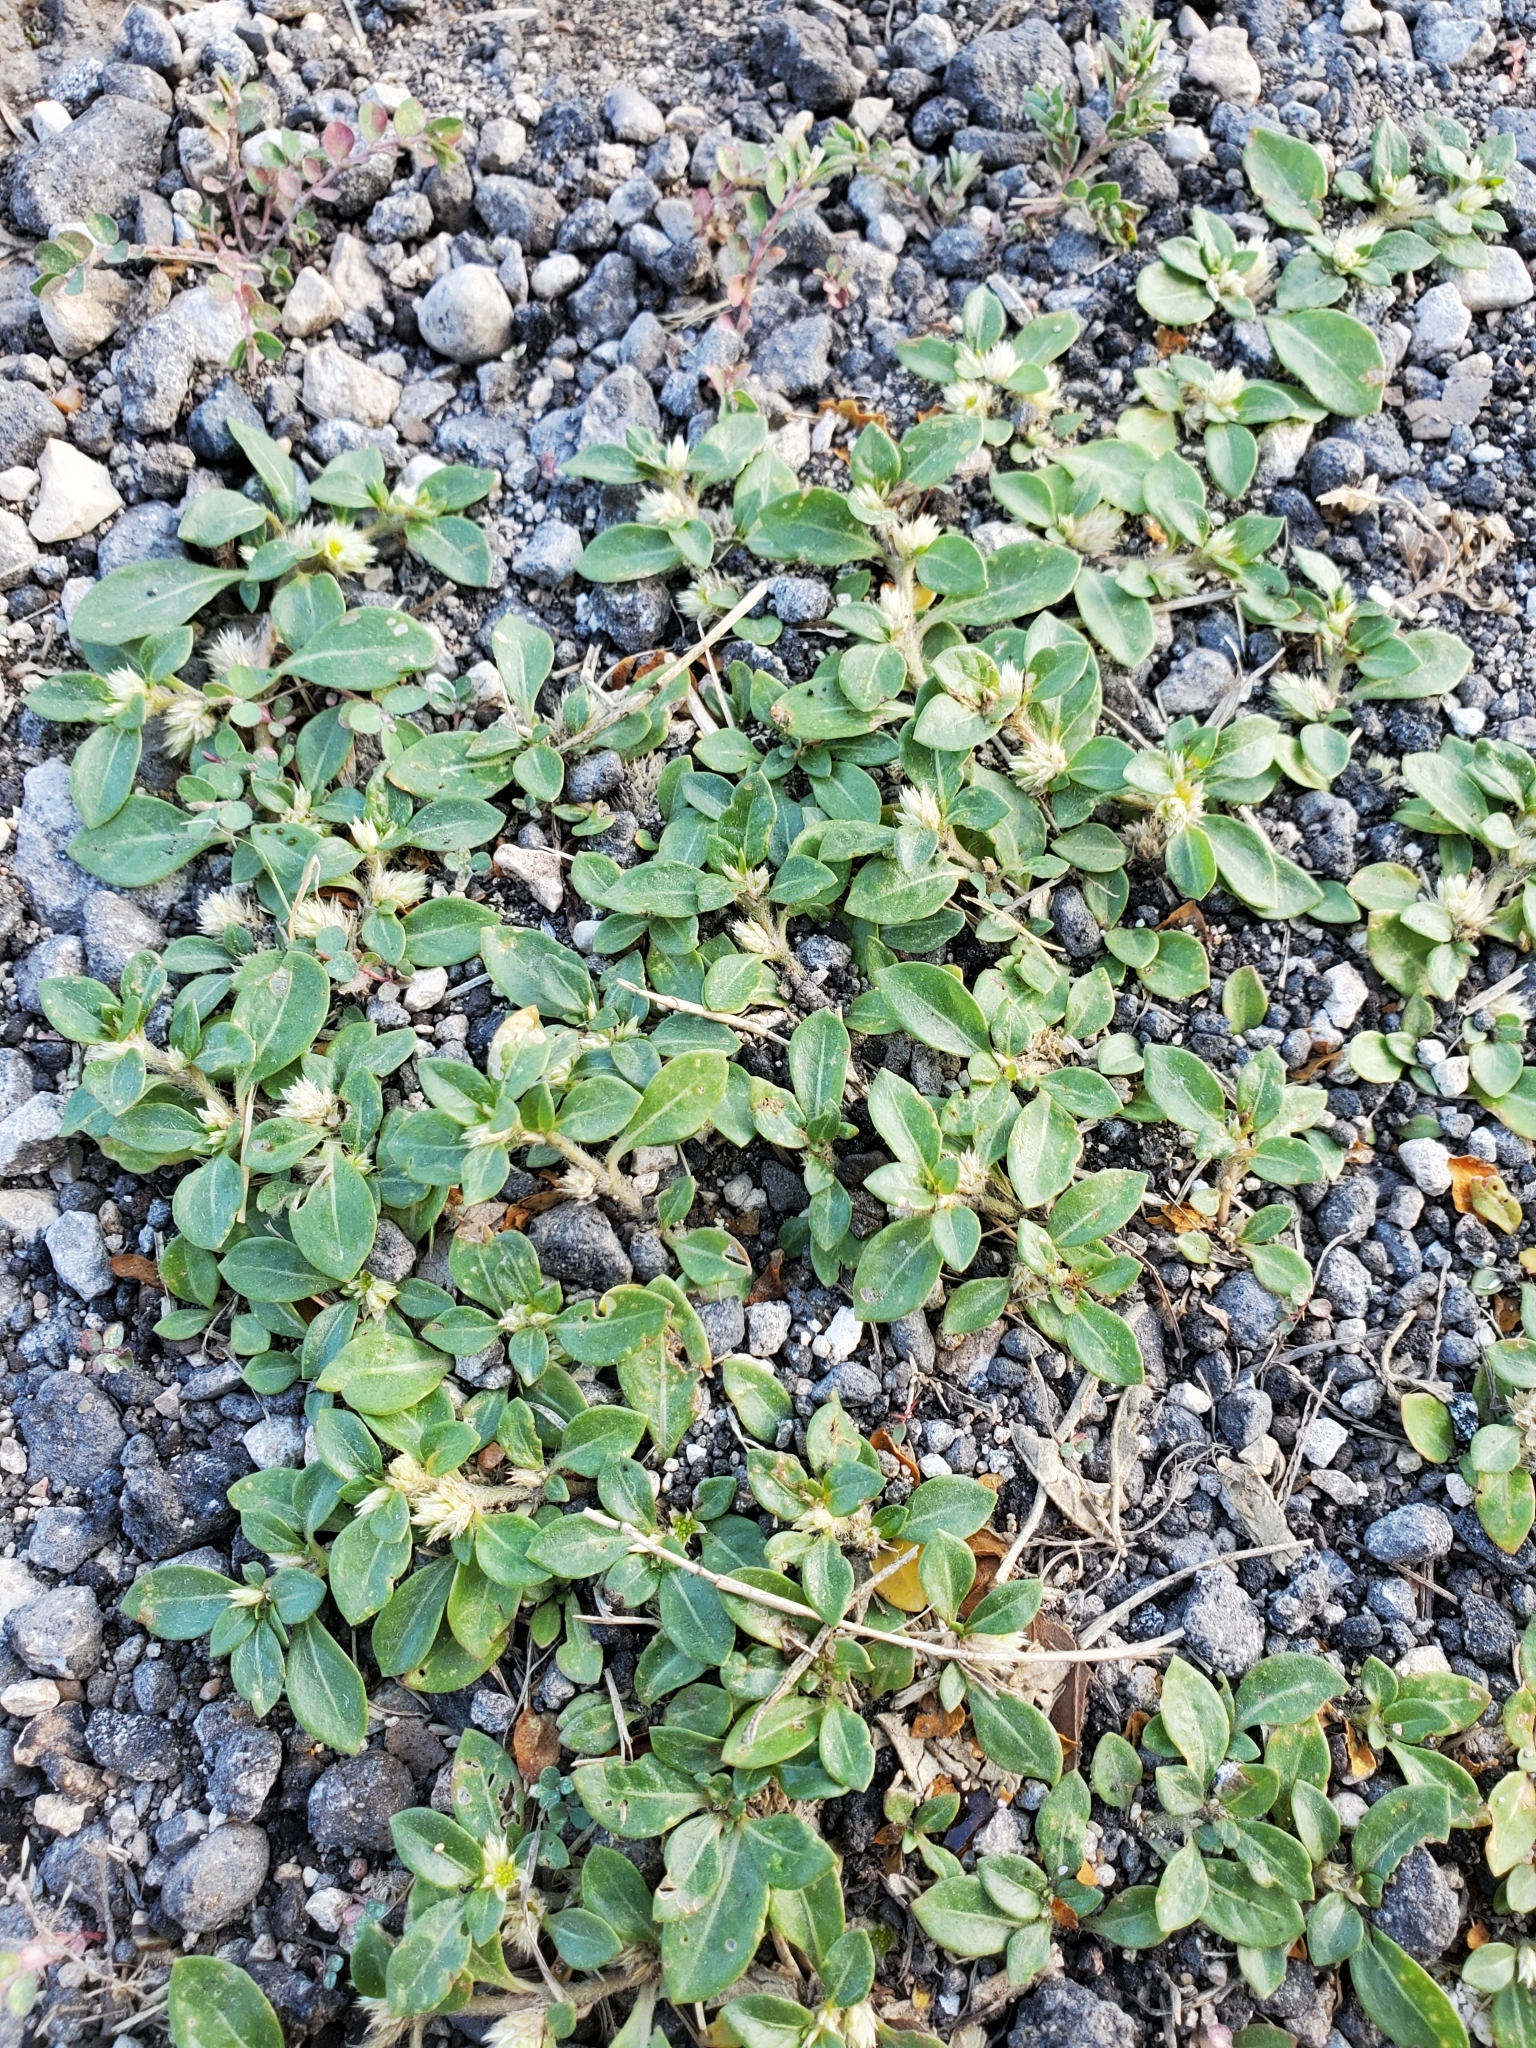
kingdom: Plantae
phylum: Tracheophyta
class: Magnoliopsida
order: Caryophyllales
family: Amaranthaceae
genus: Alternanthera
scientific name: Alternanthera caracasana
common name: Washerwoman
